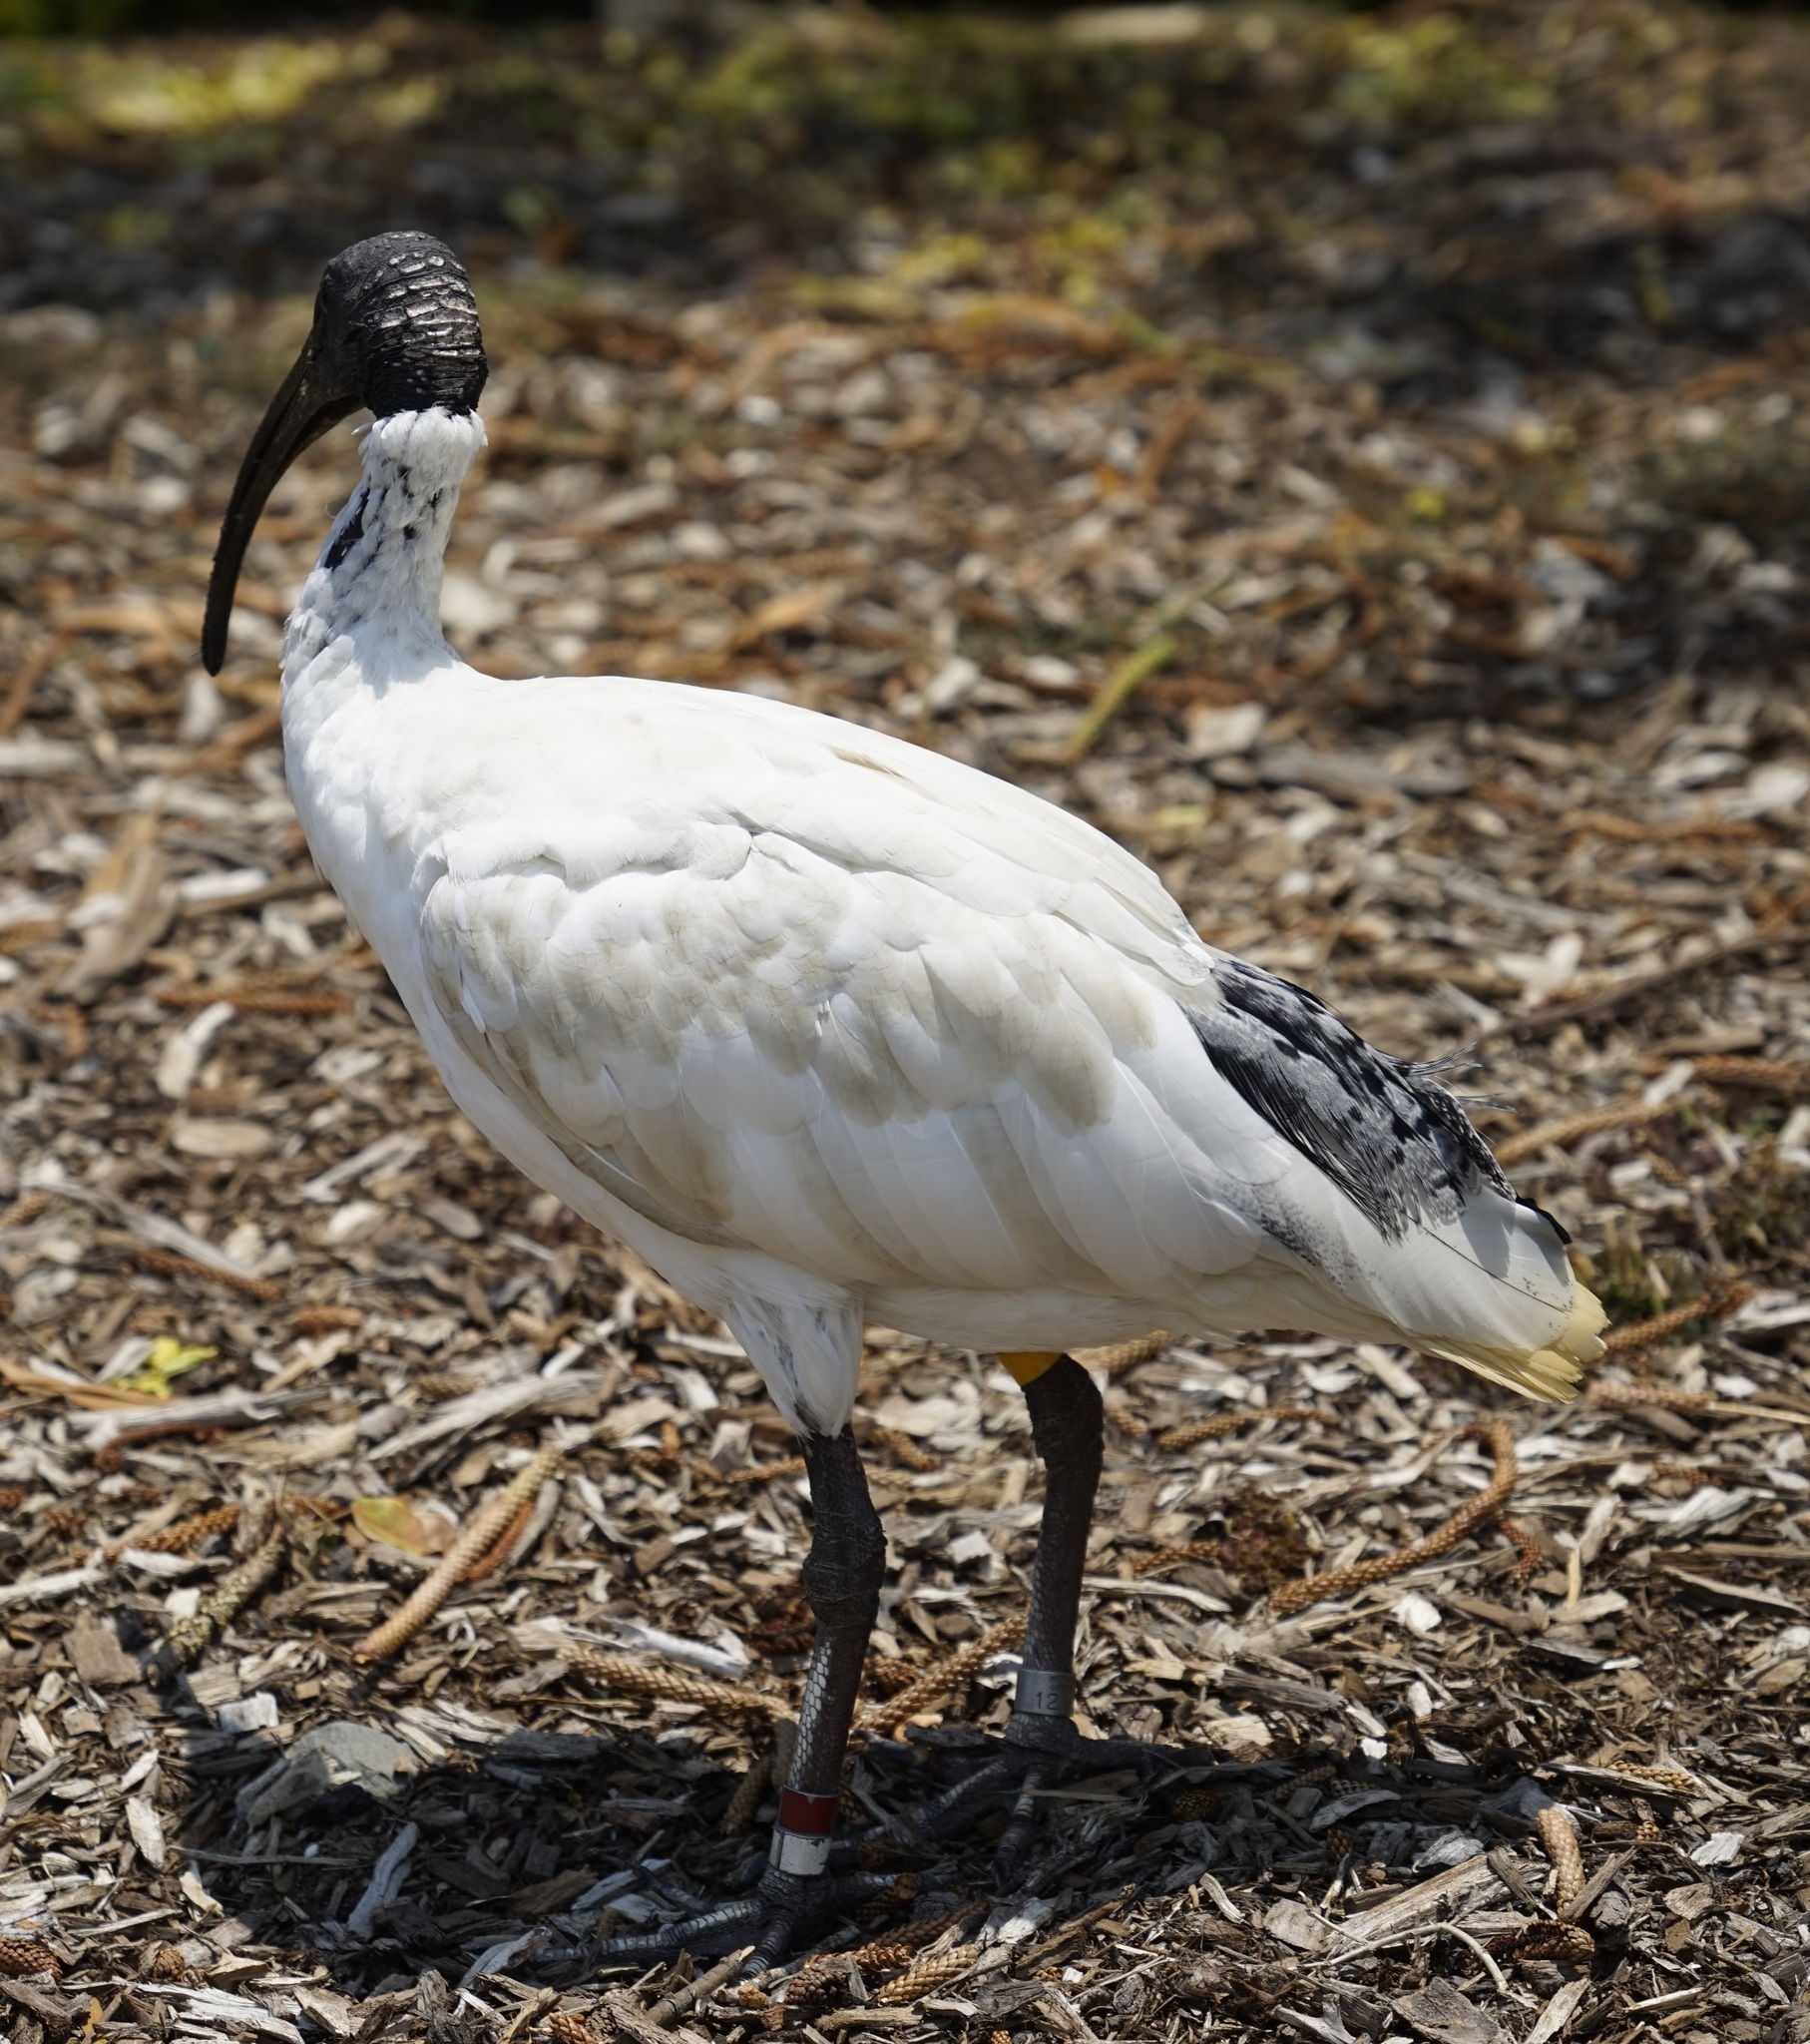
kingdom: Animalia
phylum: Chordata
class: Aves
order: Pelecaniformes
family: Threskiornithidae
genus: Threskiornis
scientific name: Threskiornis molucca
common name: Australian white ibis
